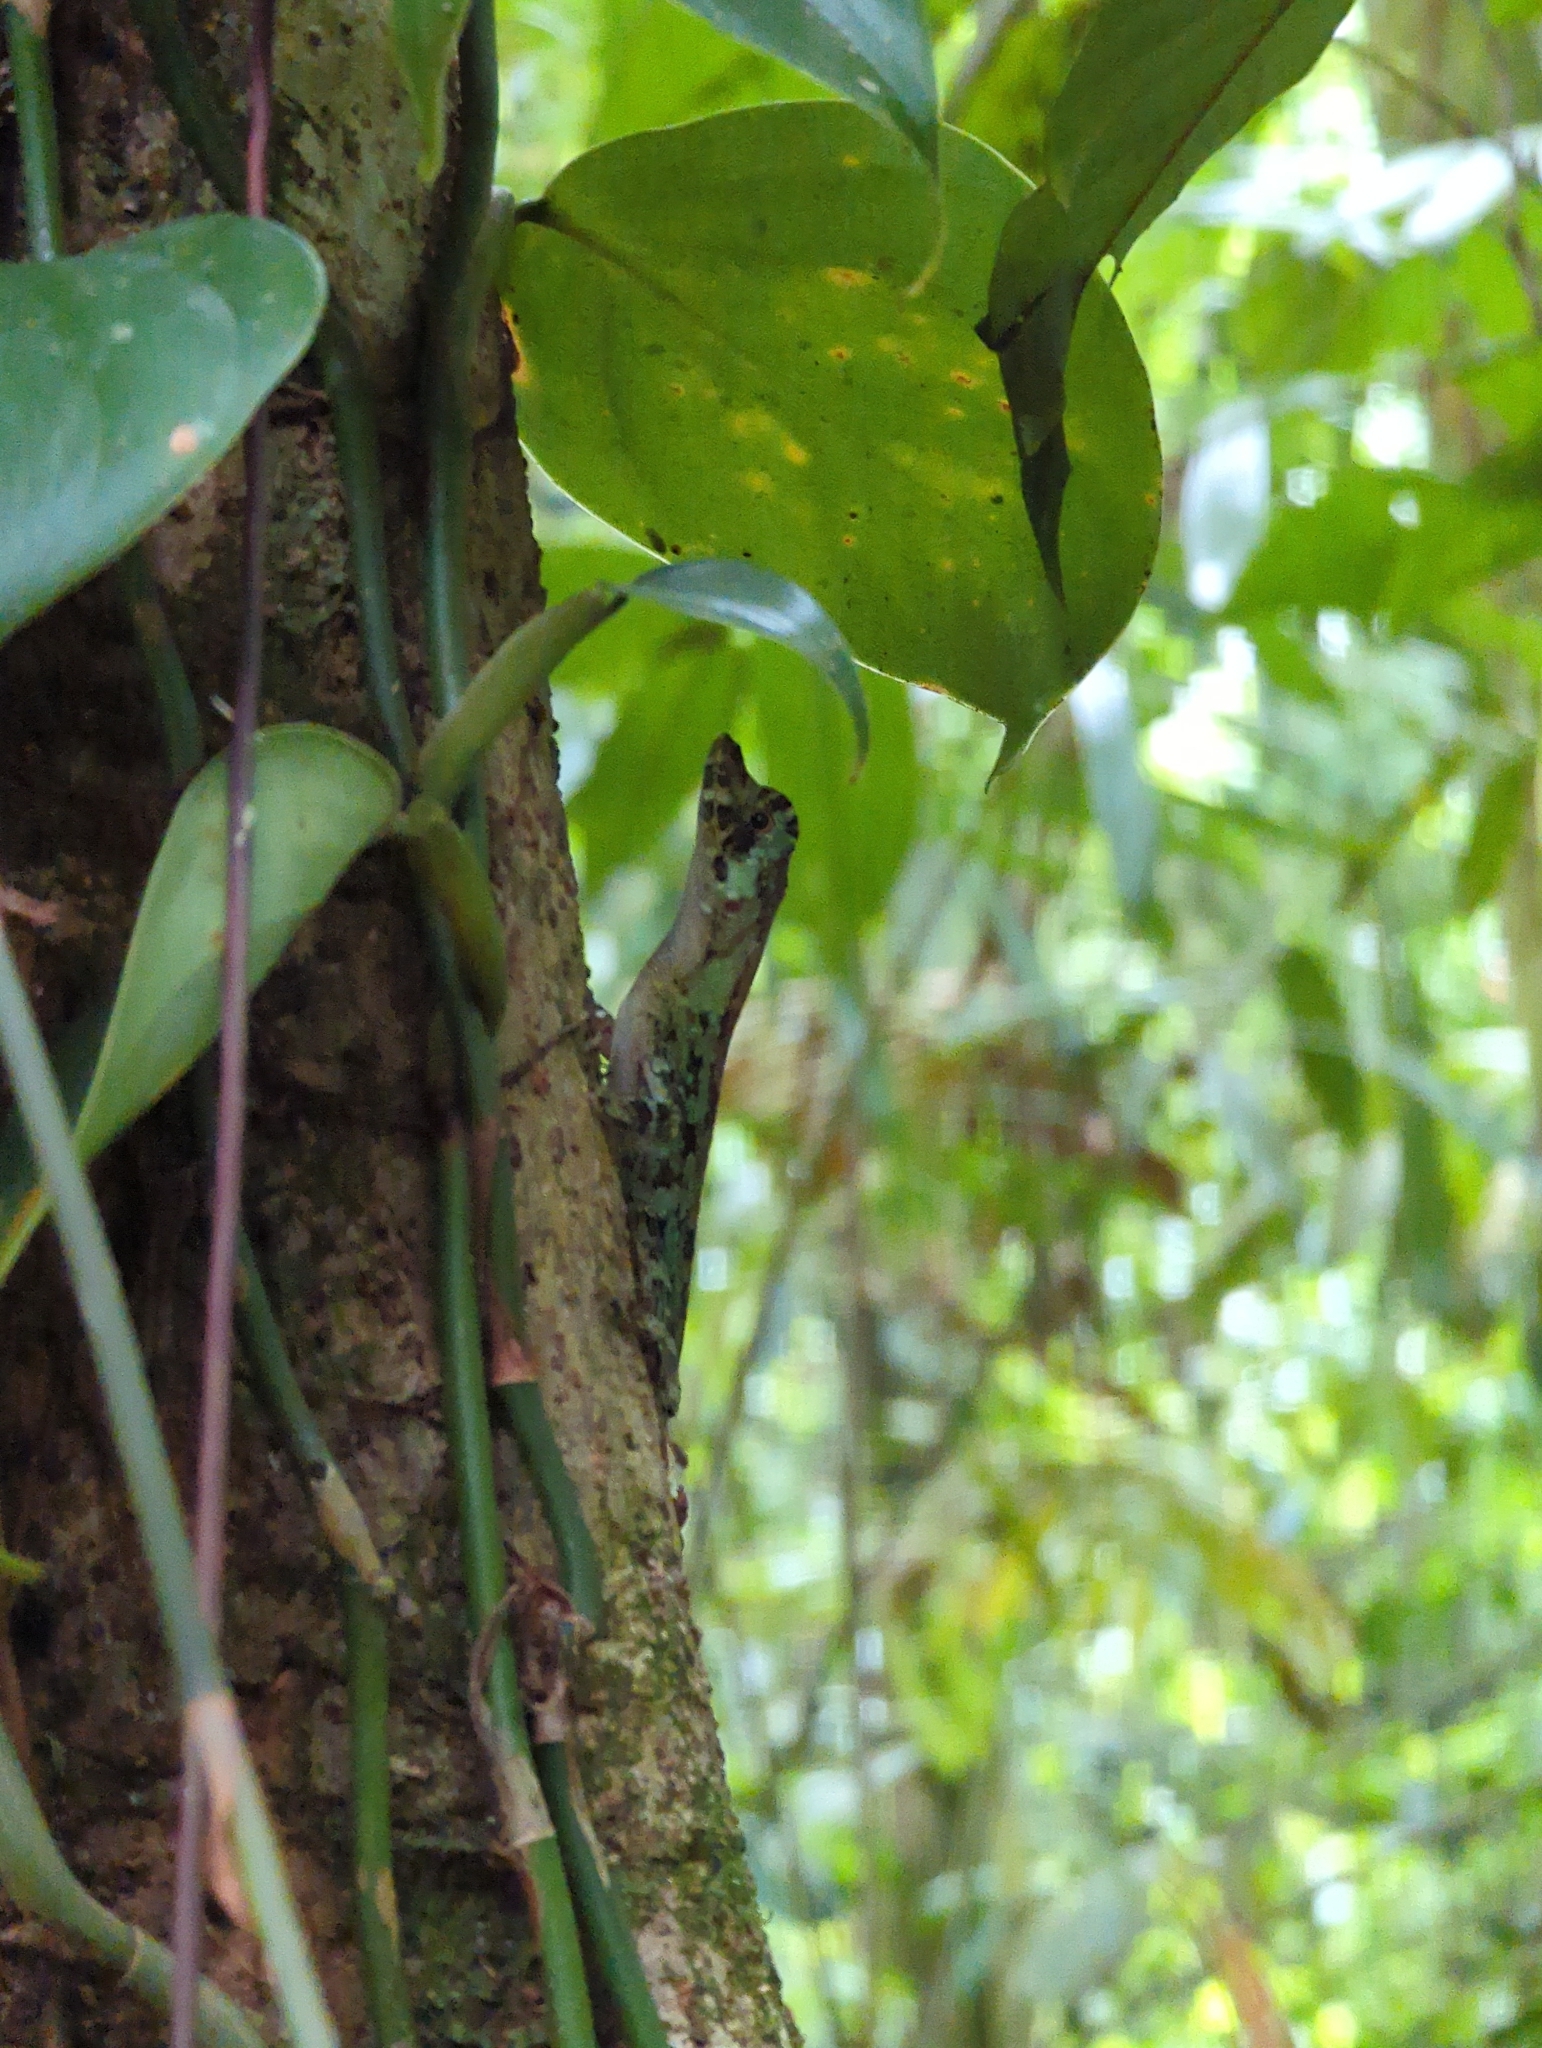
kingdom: Animalia
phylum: Chordata
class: Squamata
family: Dactyloidae
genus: Anolis
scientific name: Anolis capito
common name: Bighead anole
